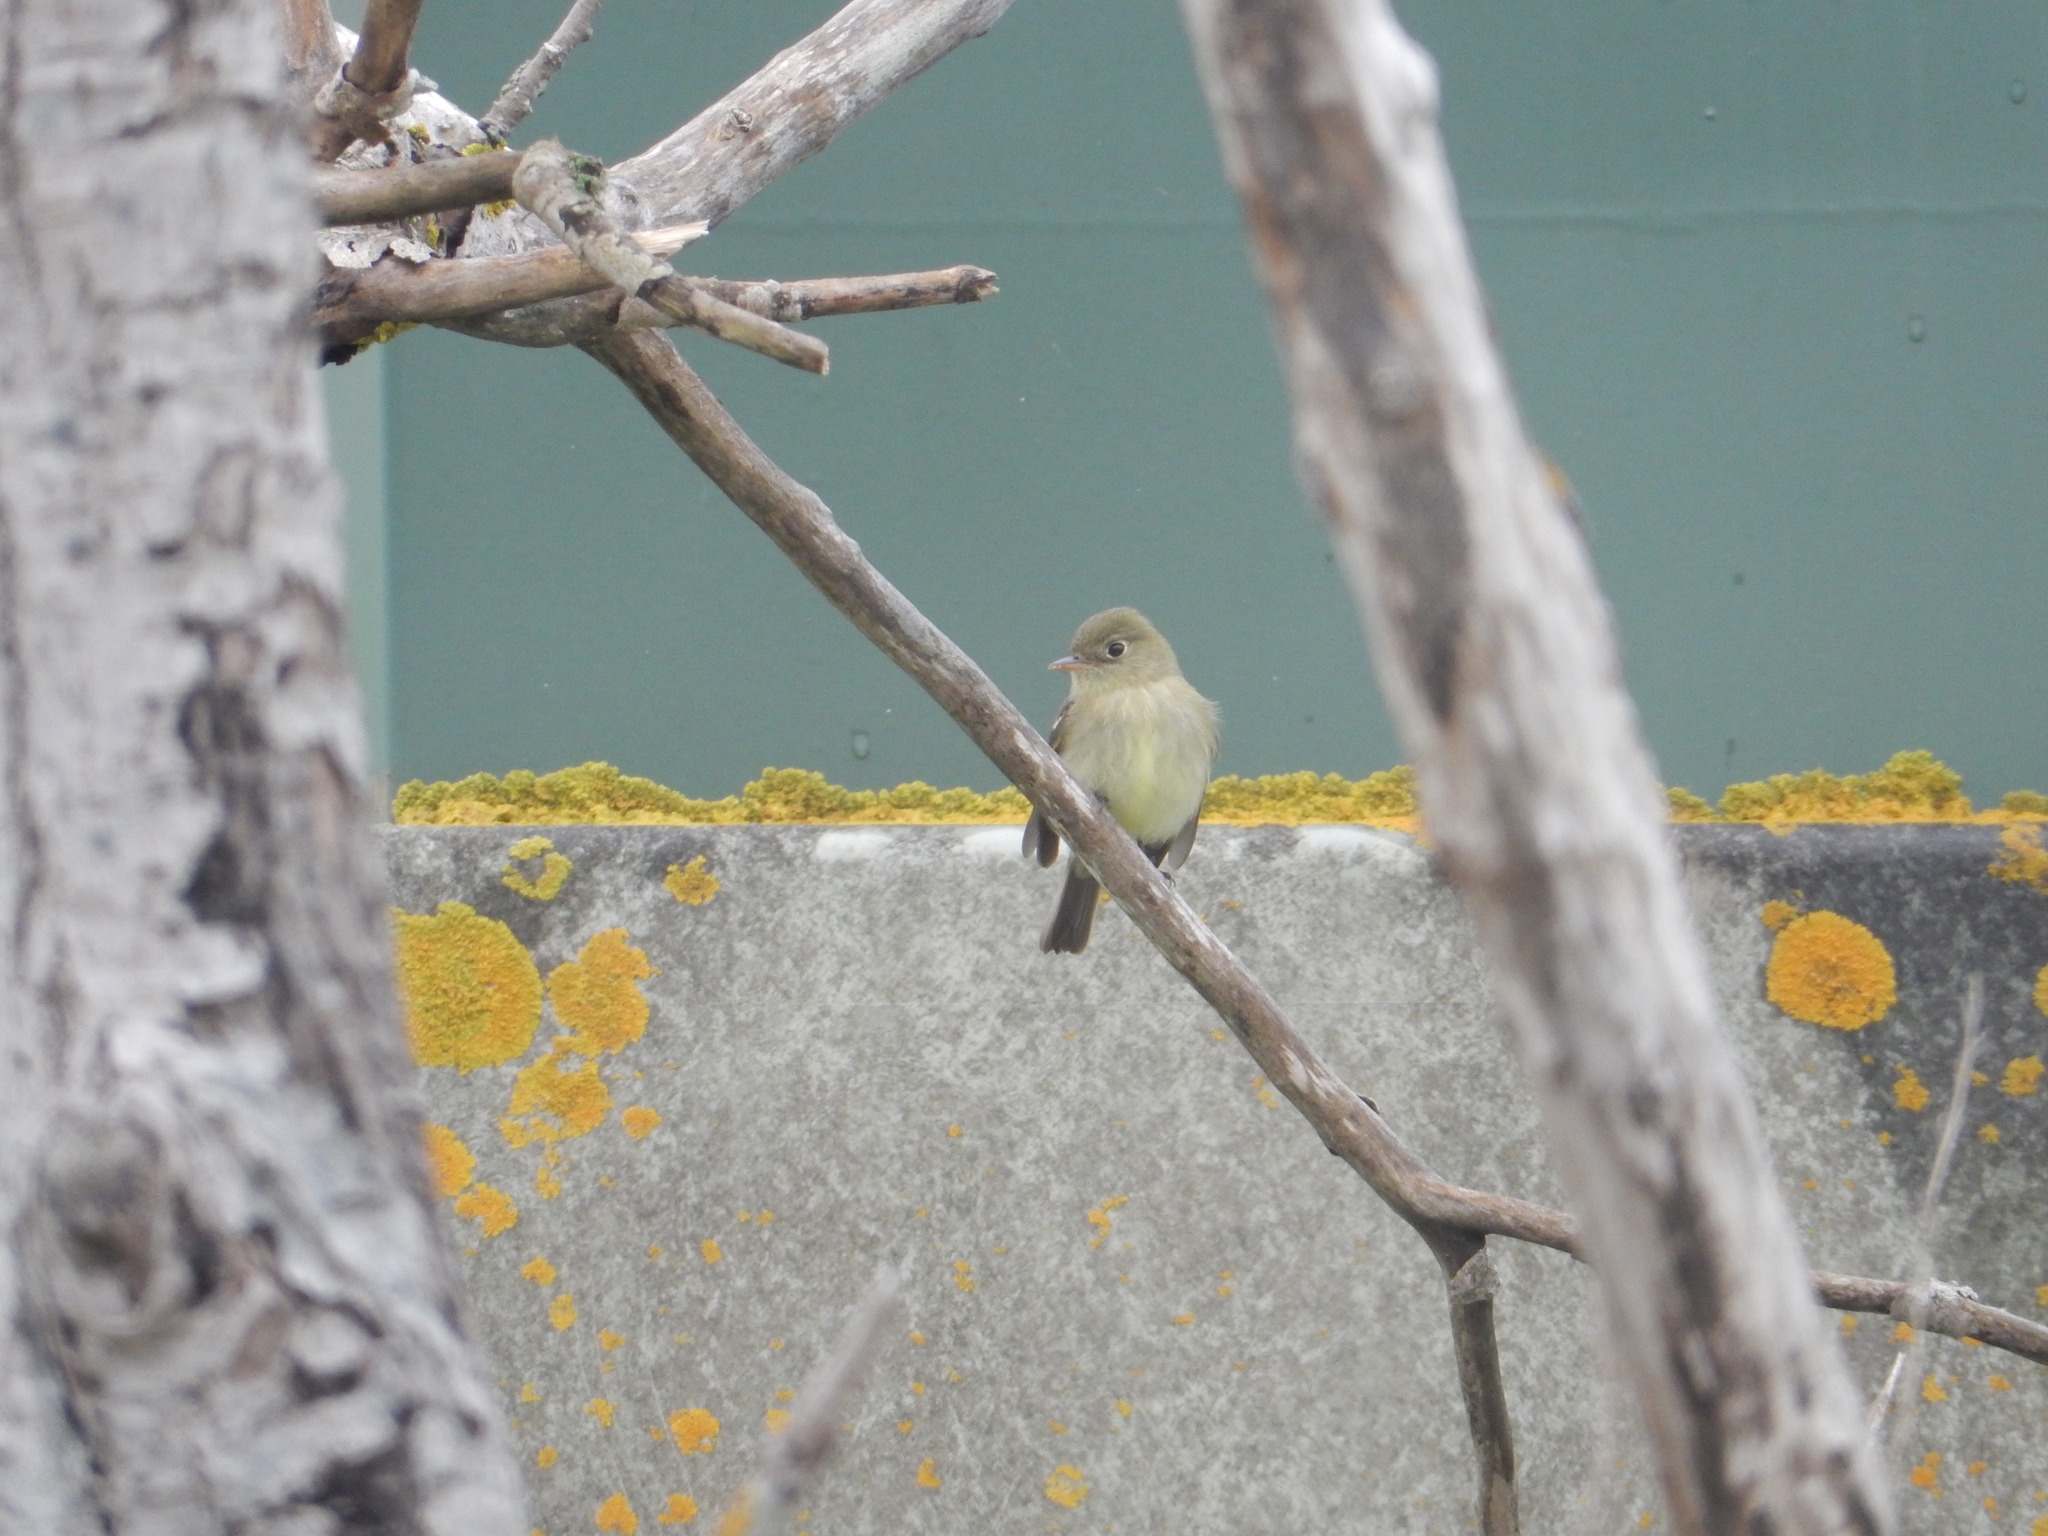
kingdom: Animalia
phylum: Chordata
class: Aves
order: Passeriformes
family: Tyrannidae
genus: Empidonax
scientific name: Empidonax flaviventris
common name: Yellow-bellied flycatcher
